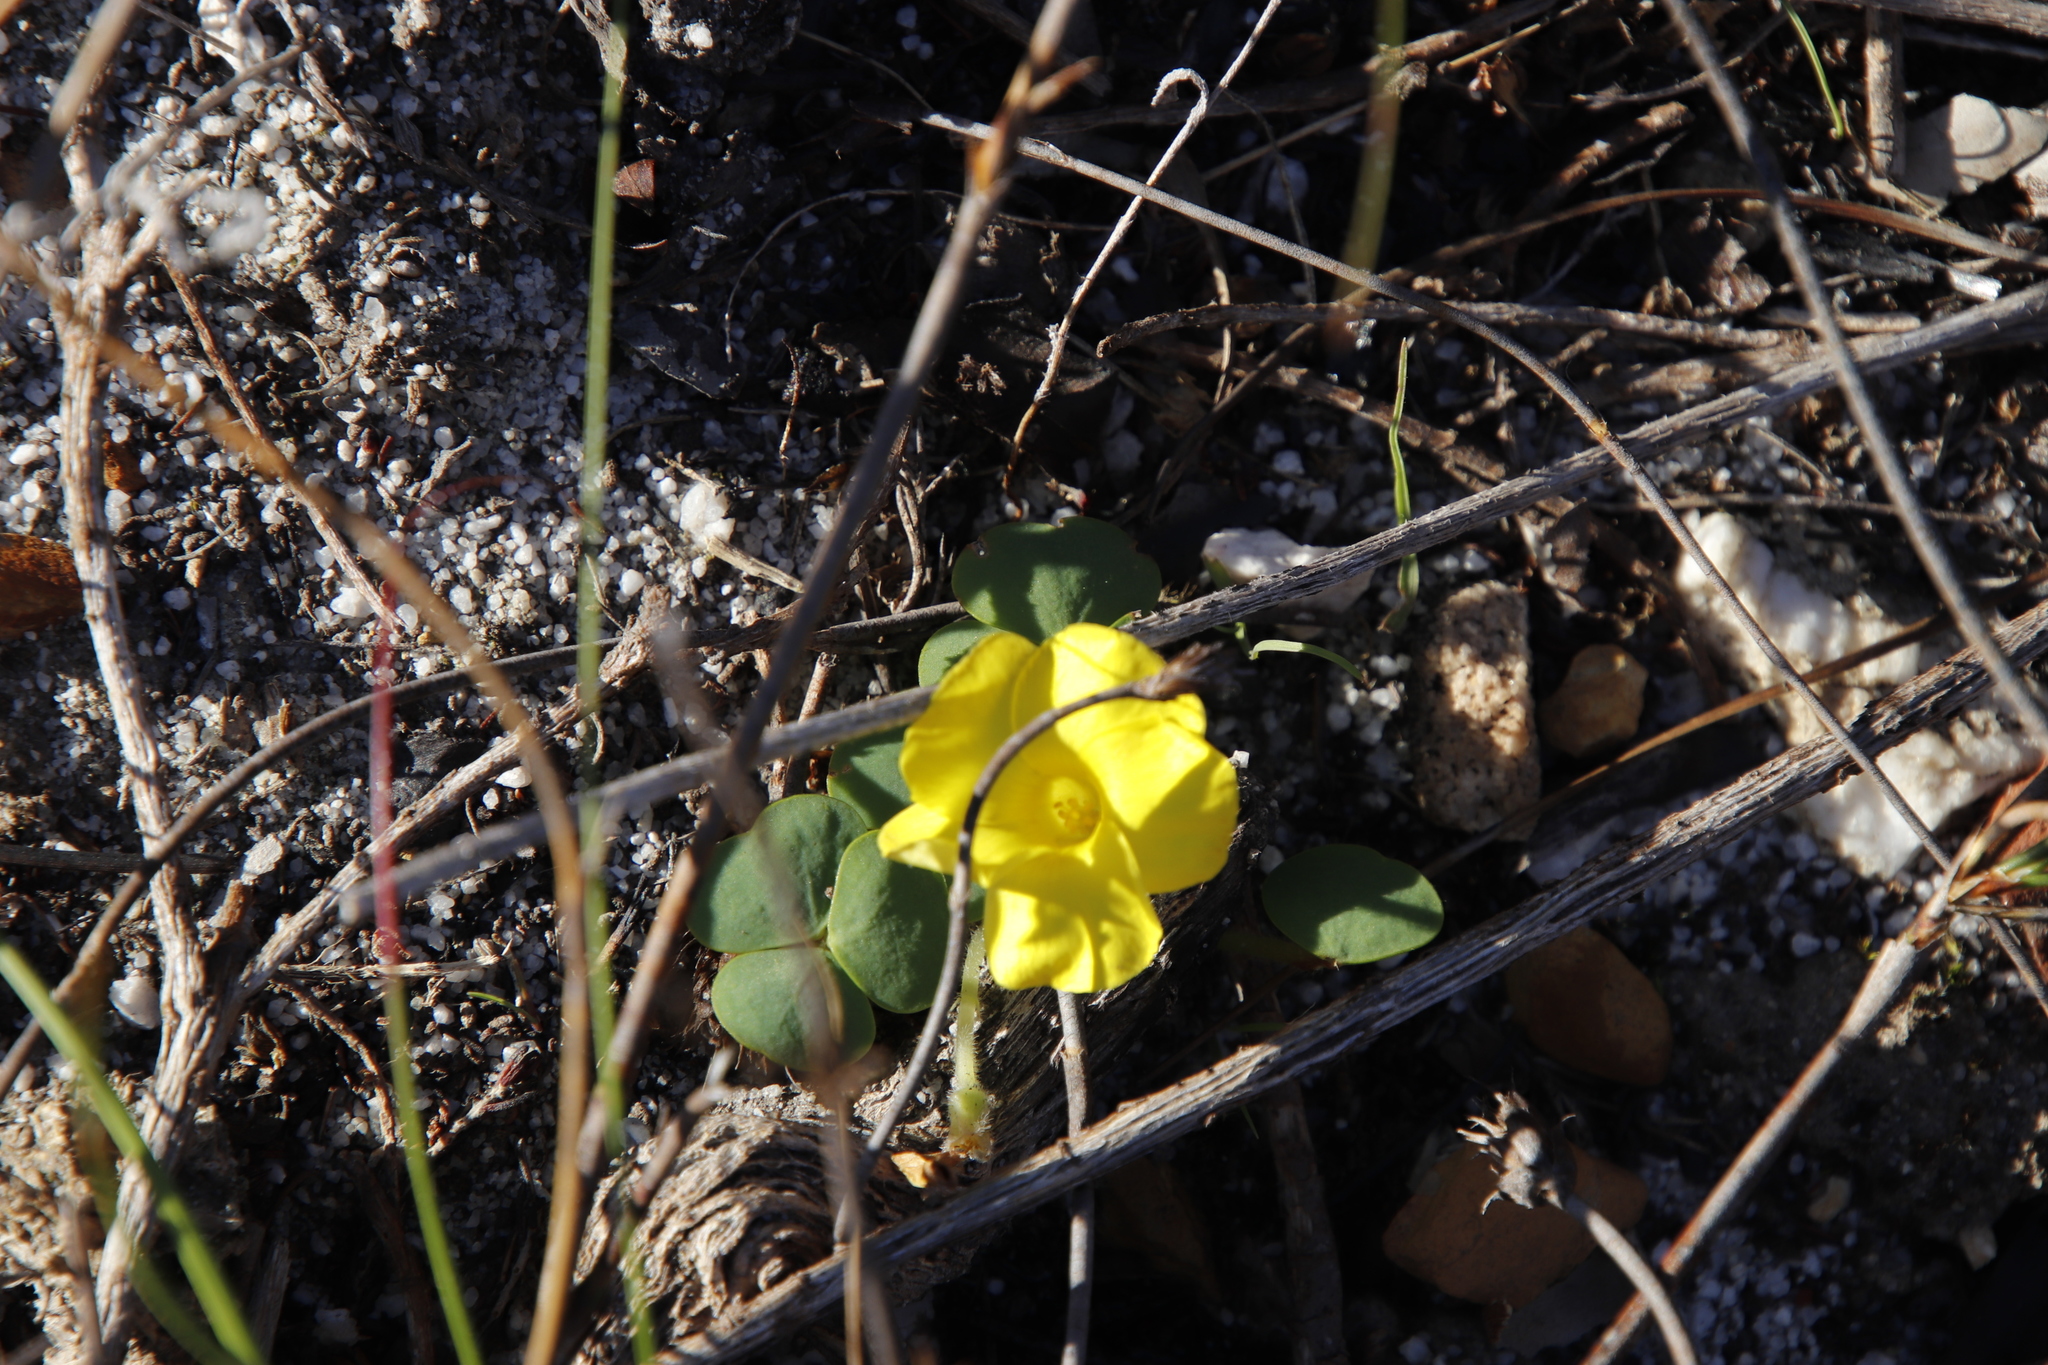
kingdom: Plantae
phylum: Tracheophyta
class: Magnoliopsida
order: Oxalidales
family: Oxalidaceae
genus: Oxalis
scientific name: Oxalis luteola
